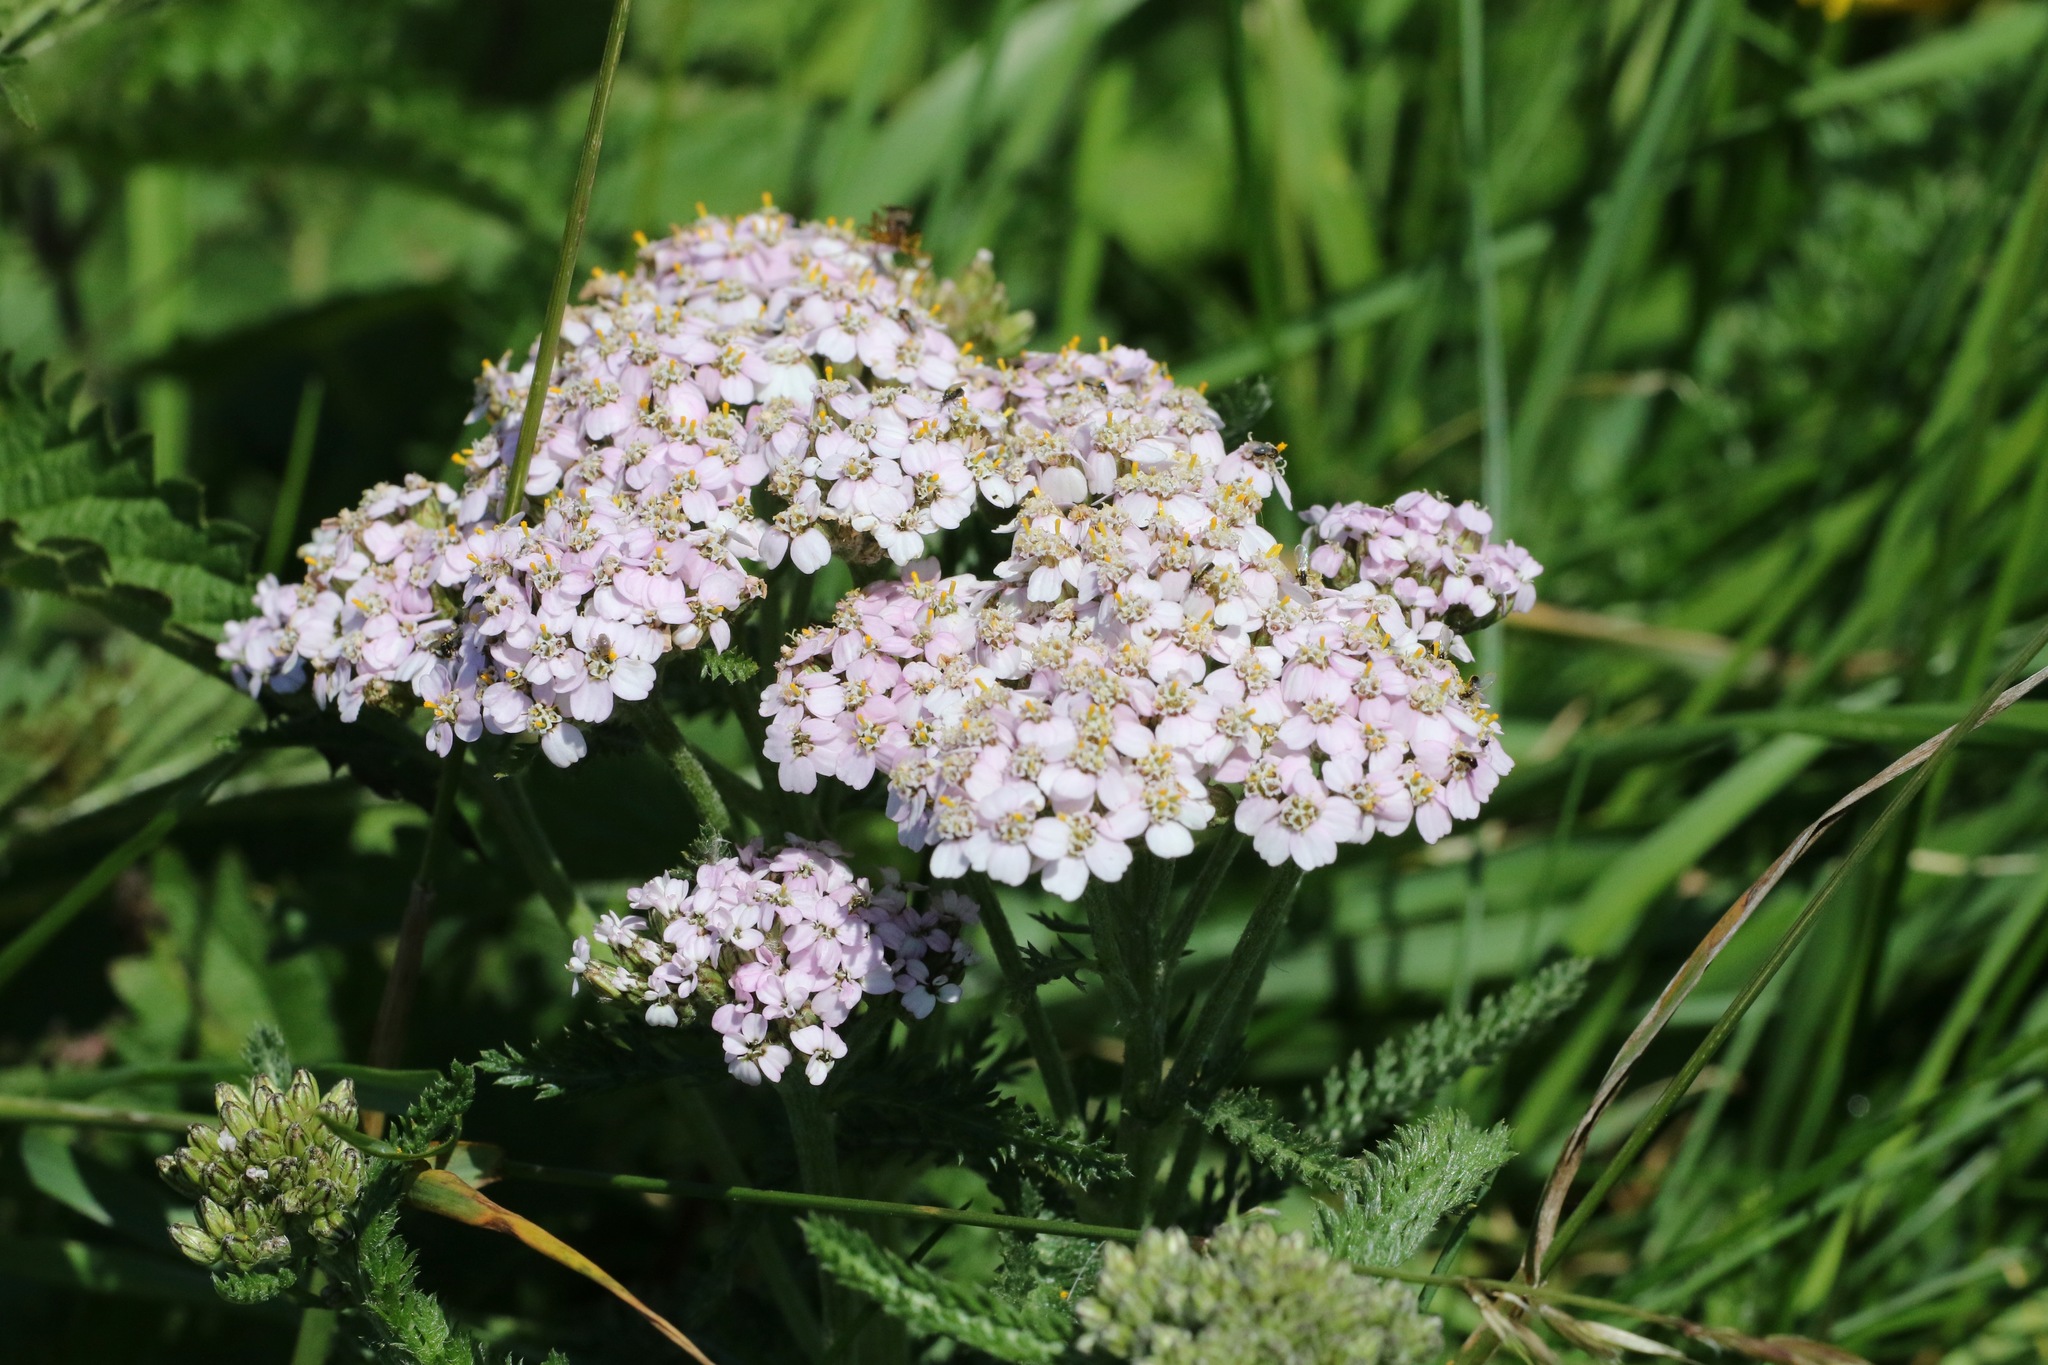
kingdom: Plantae
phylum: Tracheophyta
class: Magnoliopsida
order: Asterales
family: Asteraceae
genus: Achillea
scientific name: Achillea millefolium
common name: Yarrow
